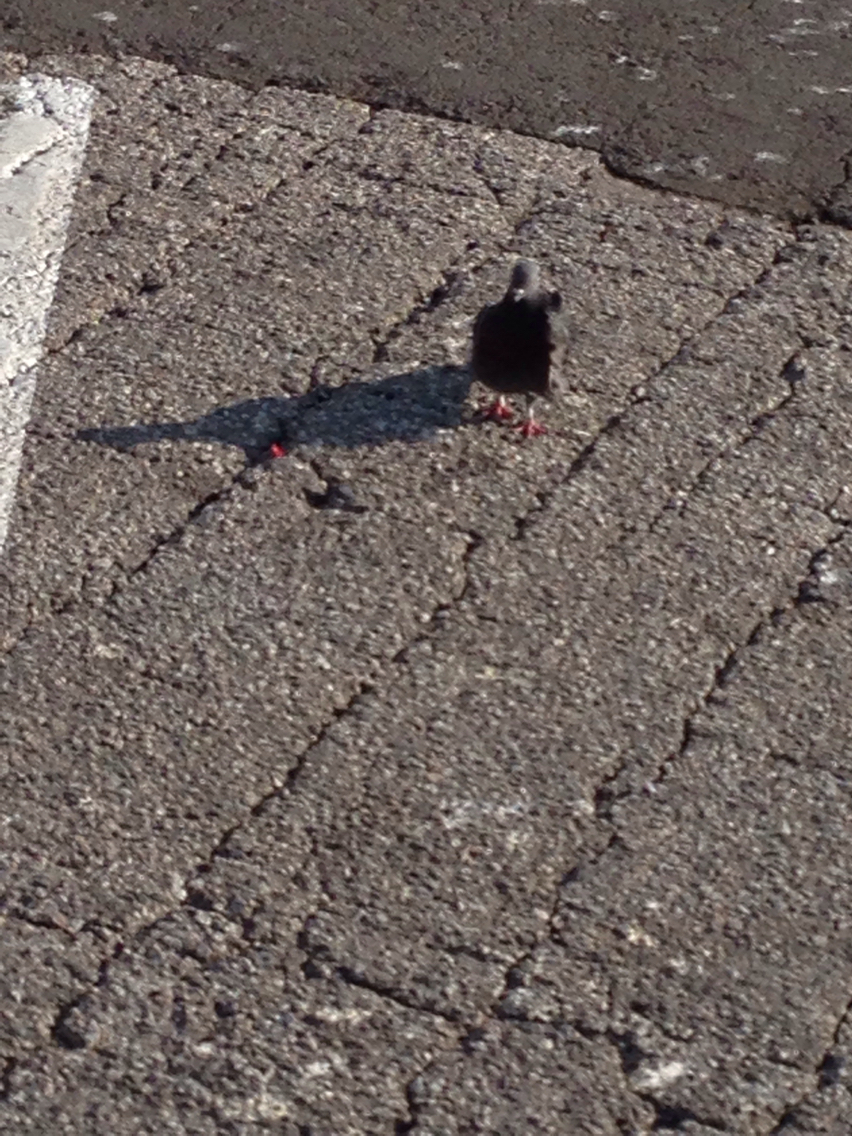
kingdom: Animalia
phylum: Chordata
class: Aves
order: Columbiformes
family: Columbidae
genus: Columba
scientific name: Columba livia
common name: Rock pigeon
